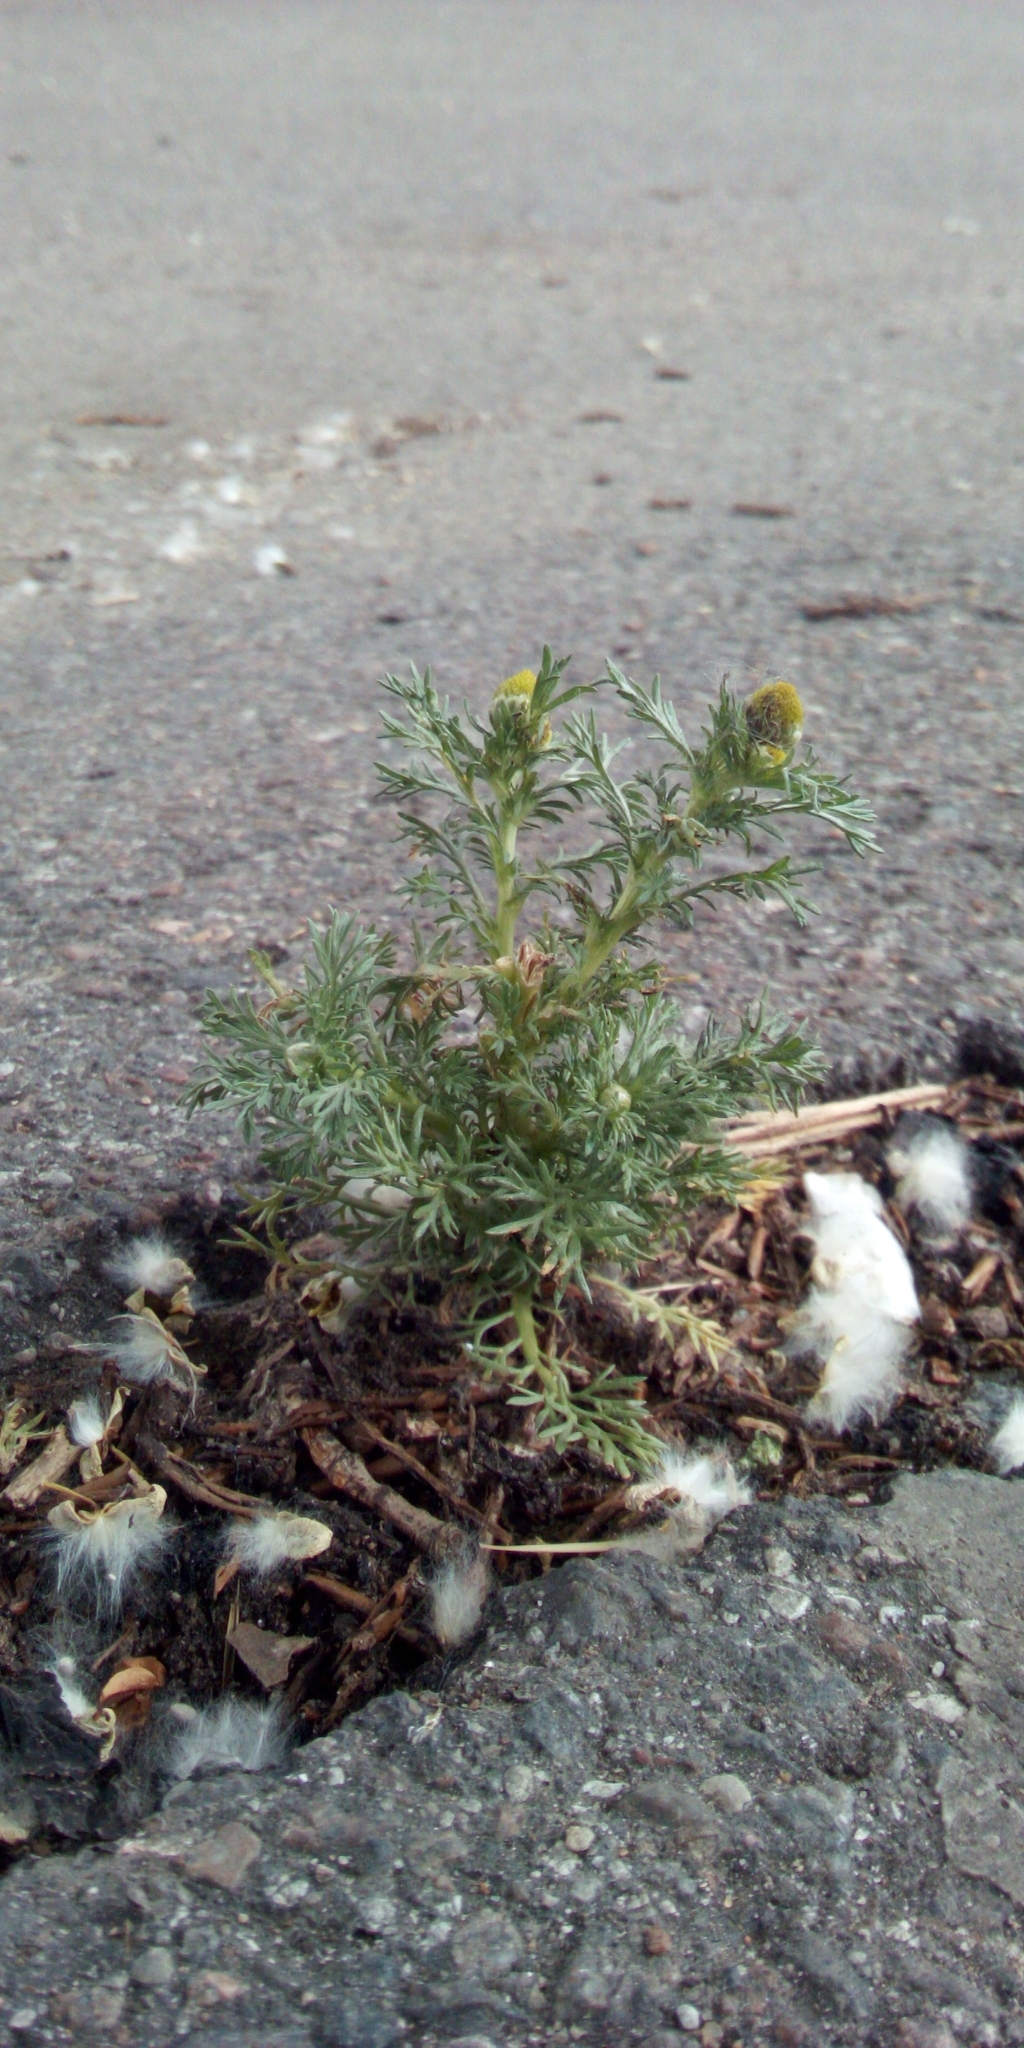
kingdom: Plantae
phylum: Tracheophyta
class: Magnoliopsida
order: Asterales
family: Asteraceae
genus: Matricaria
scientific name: Matricaria discoidea
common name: Disc mayweed
